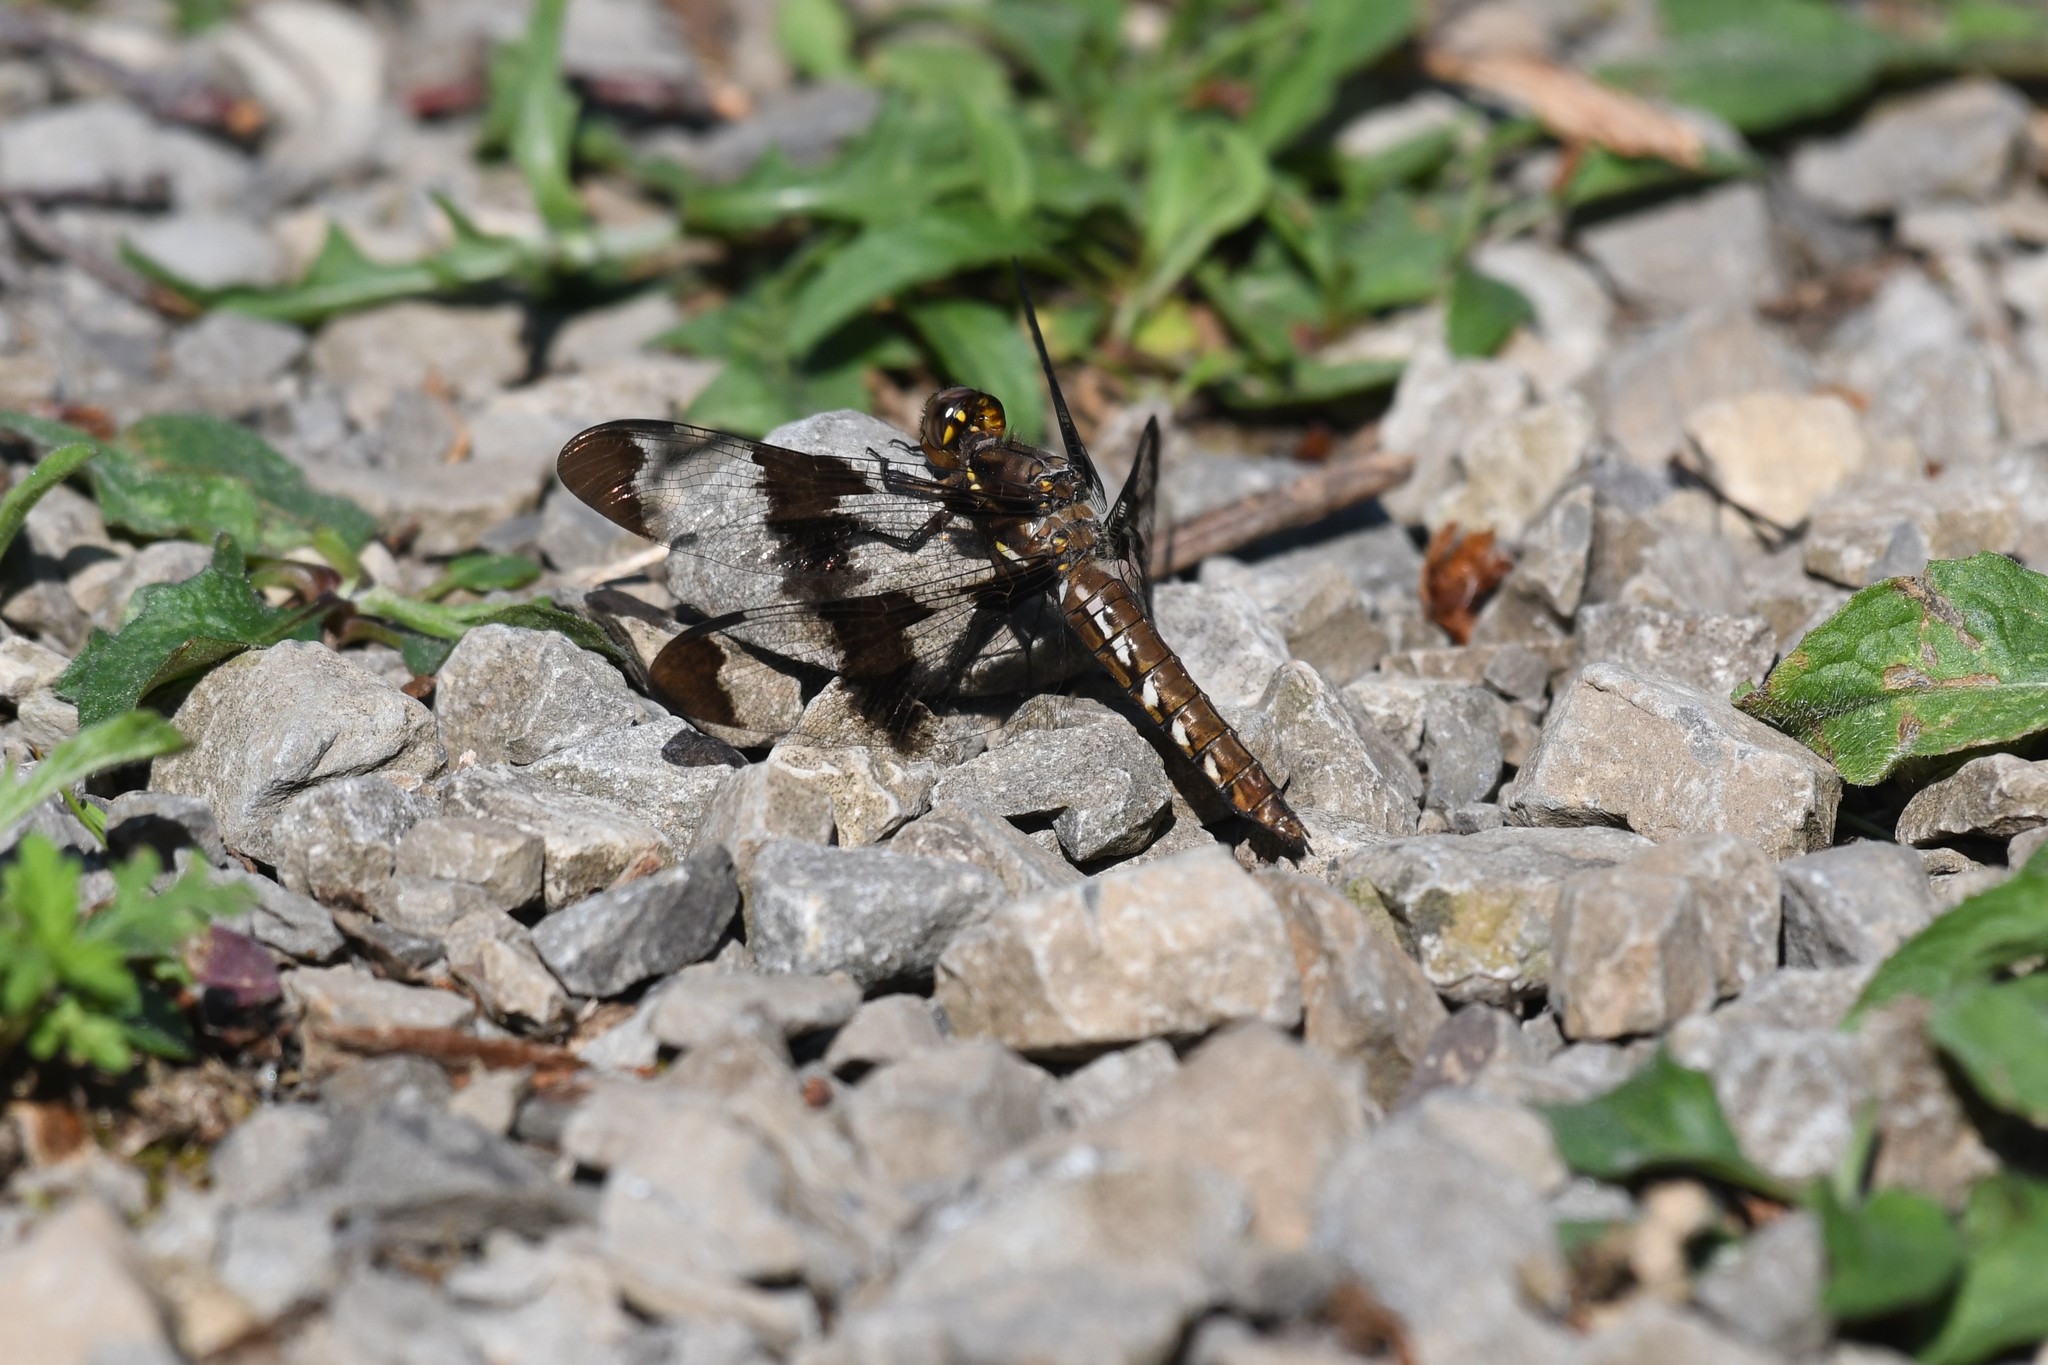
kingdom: Animalia
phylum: Arthropoda
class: Insecta
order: Odonata
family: Libellulidae
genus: Plathemis
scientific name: Plathemis lydia
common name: Common whitetail
